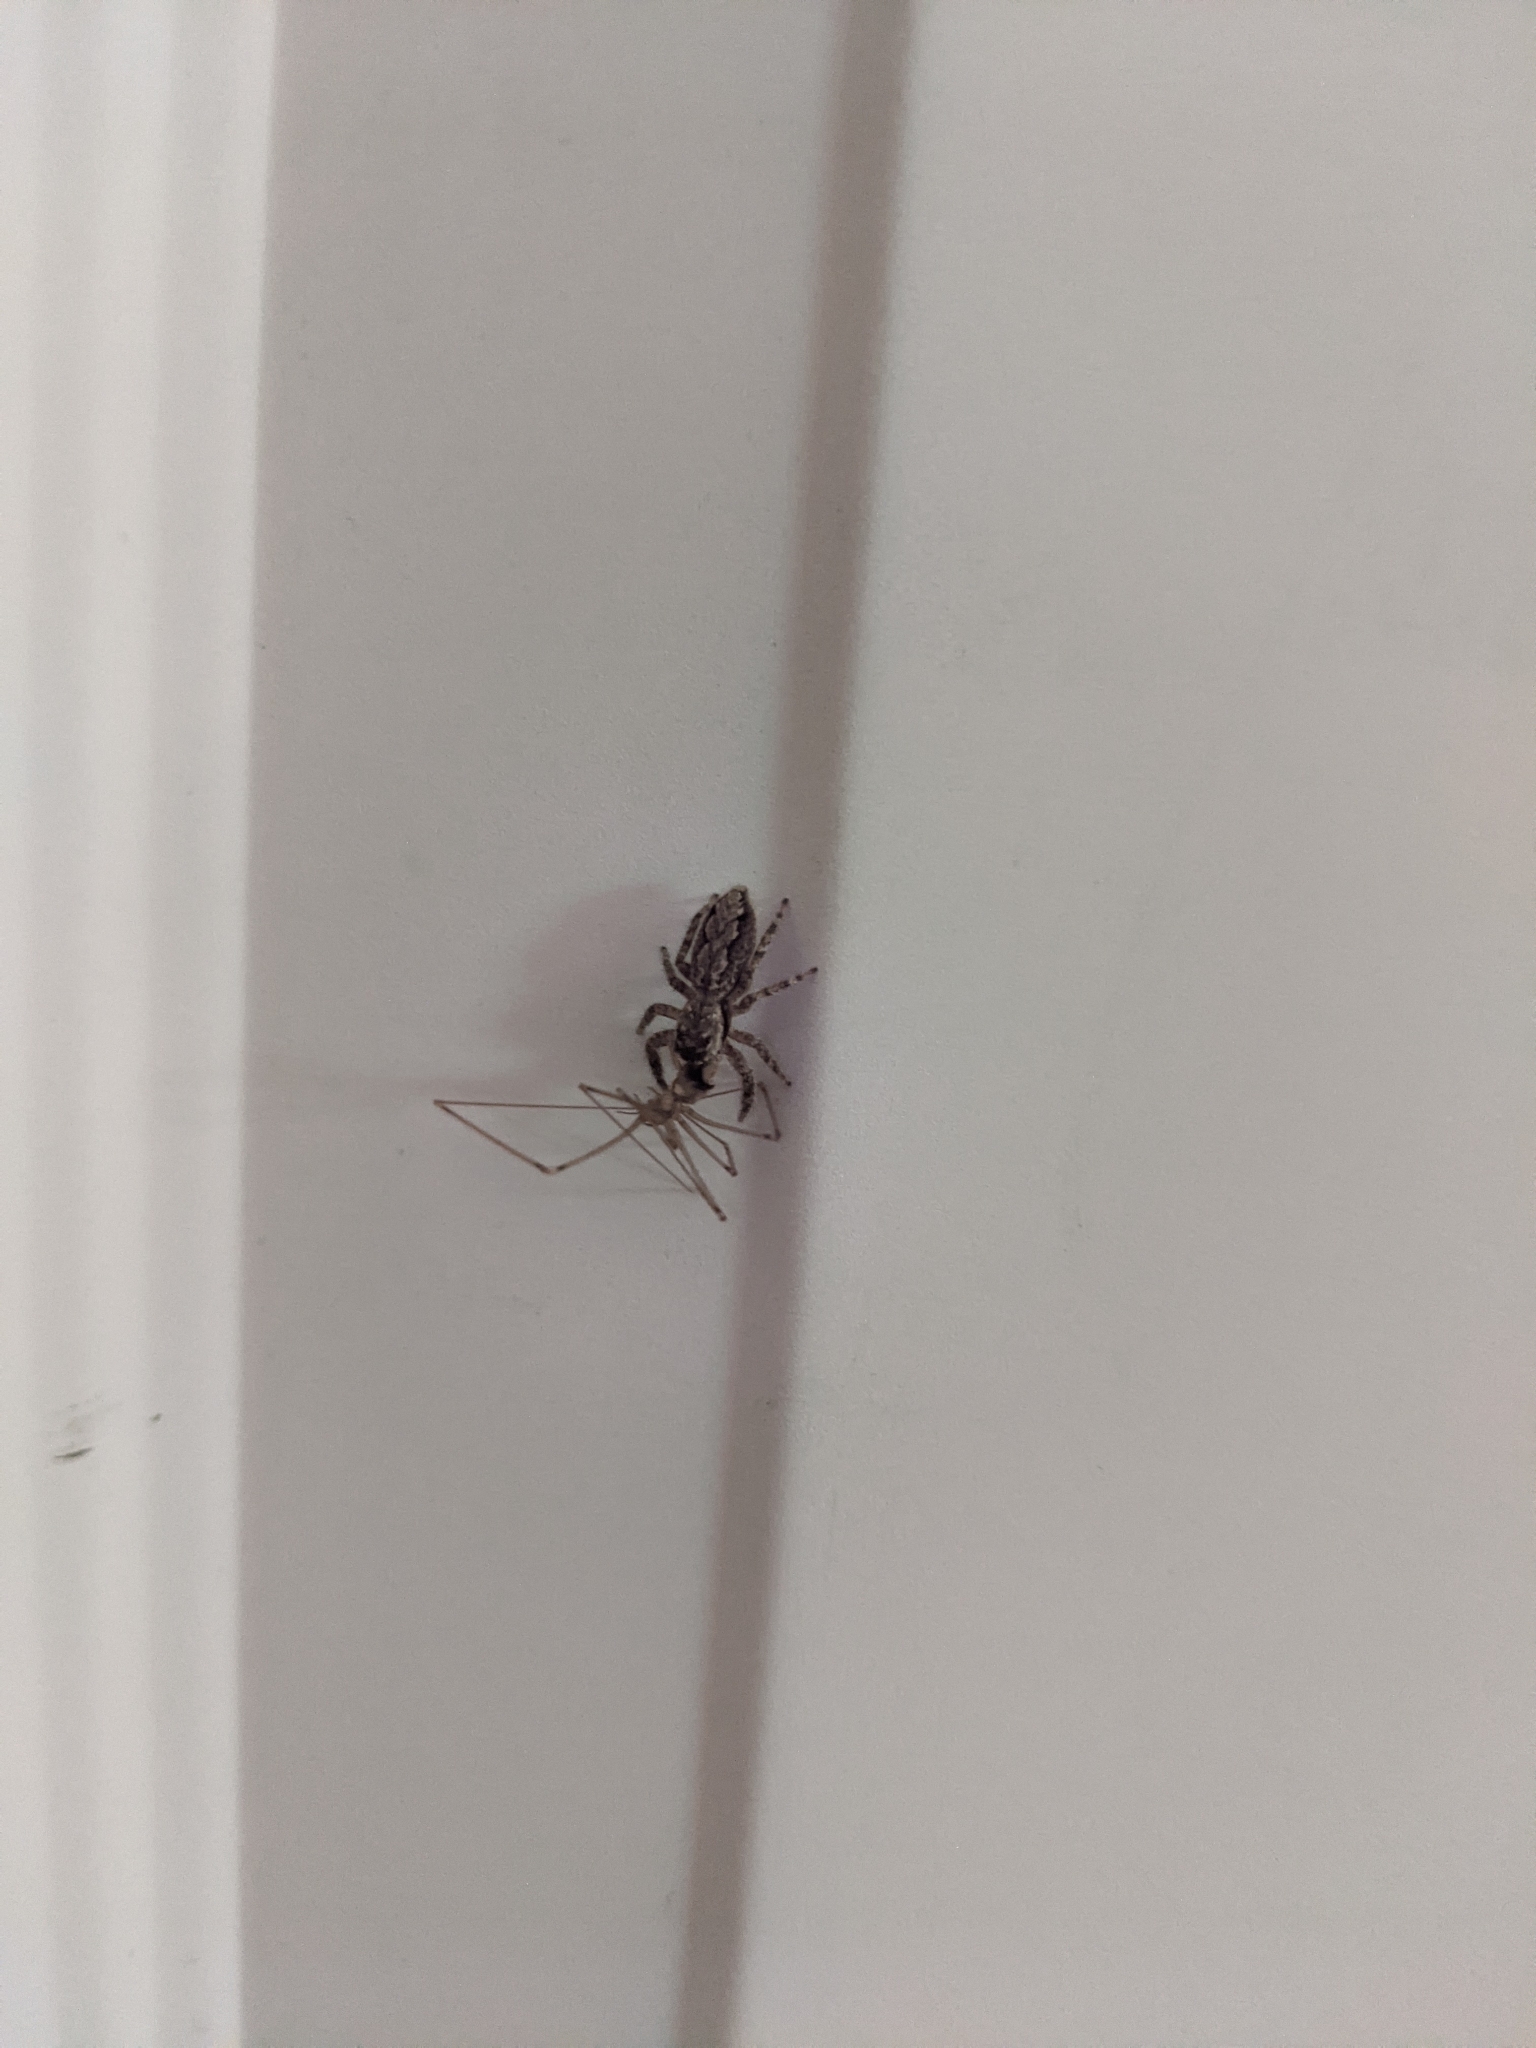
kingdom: Animalia
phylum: Arthropoda
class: Arachnida
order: Araneae
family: Salticidae
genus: Platycryptus
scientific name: Platycryptus undatus
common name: Tan jumping spider
